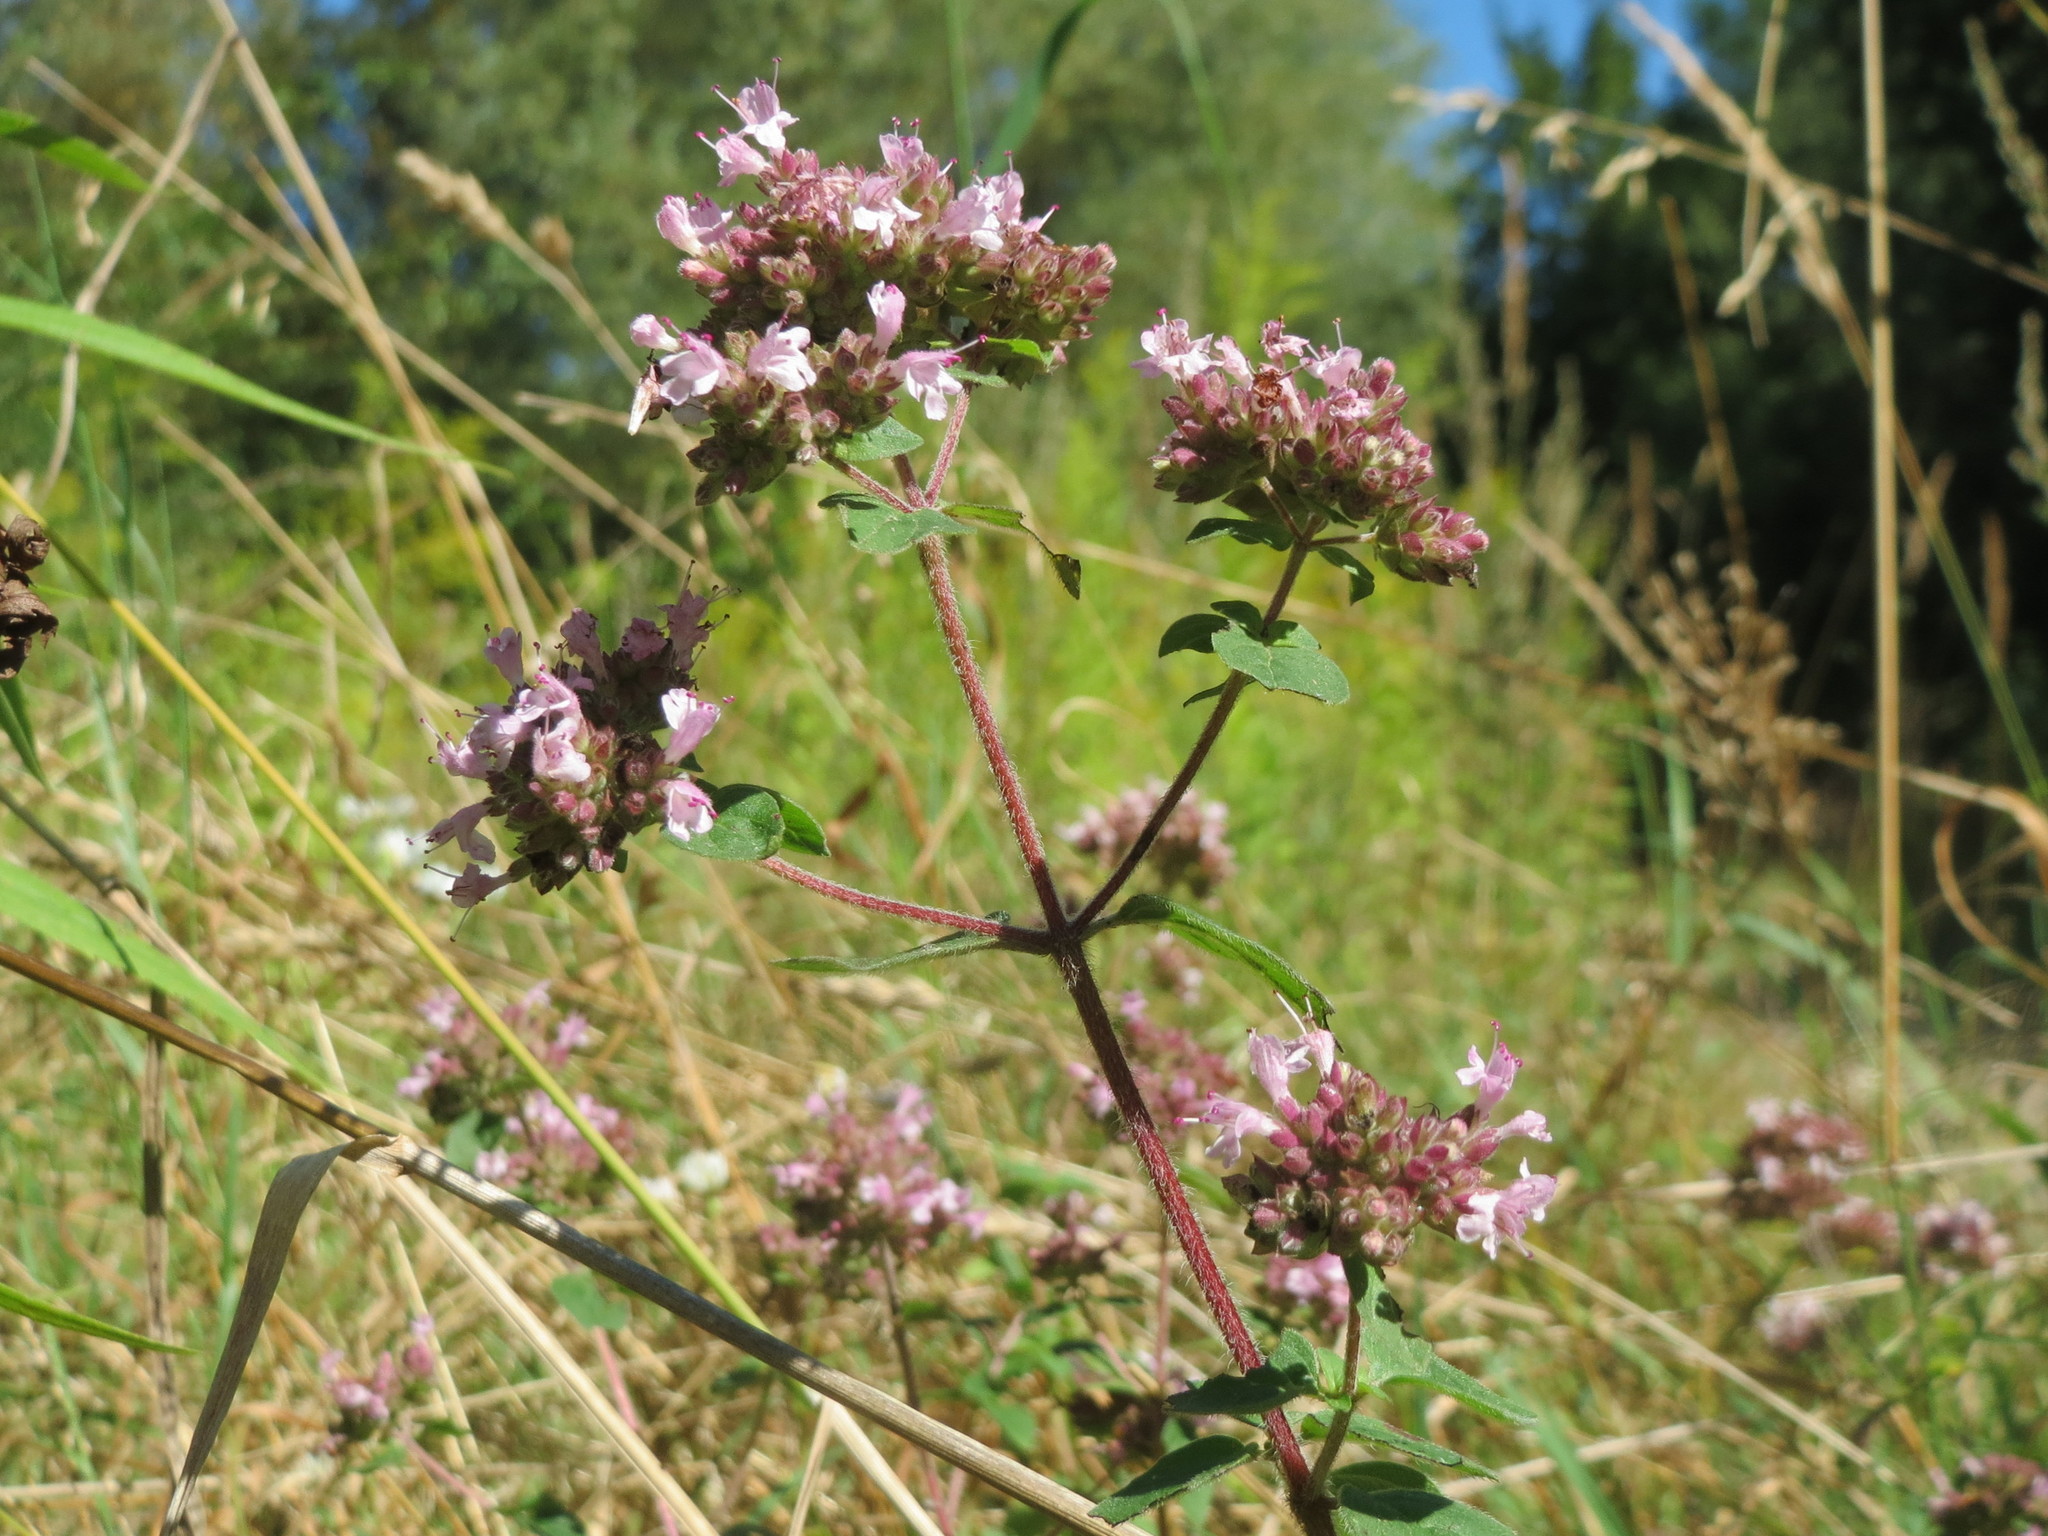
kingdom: Plantae
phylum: Tracheophyta
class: Magnoliopsida
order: Lamiales
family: Lamiaceae
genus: Origanum
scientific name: Origanum vulgare
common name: Wild marjoram
